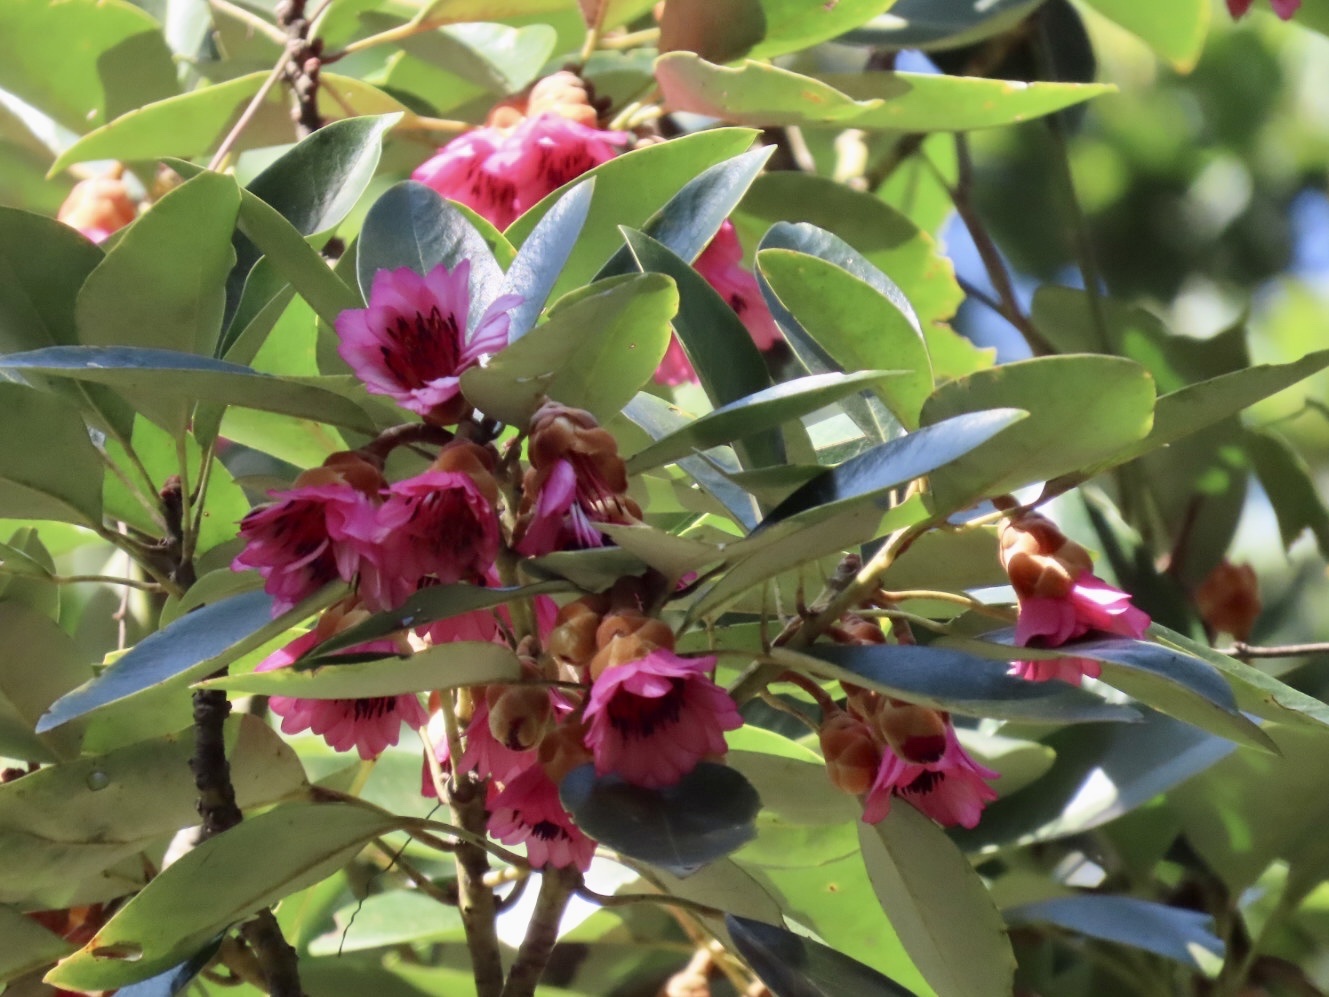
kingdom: Plantae
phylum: Tracheophyta
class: Magnoliopsida
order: Saxifragales
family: Hamamelidaceae
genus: Rhodoleia
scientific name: Rhodoleia championii
